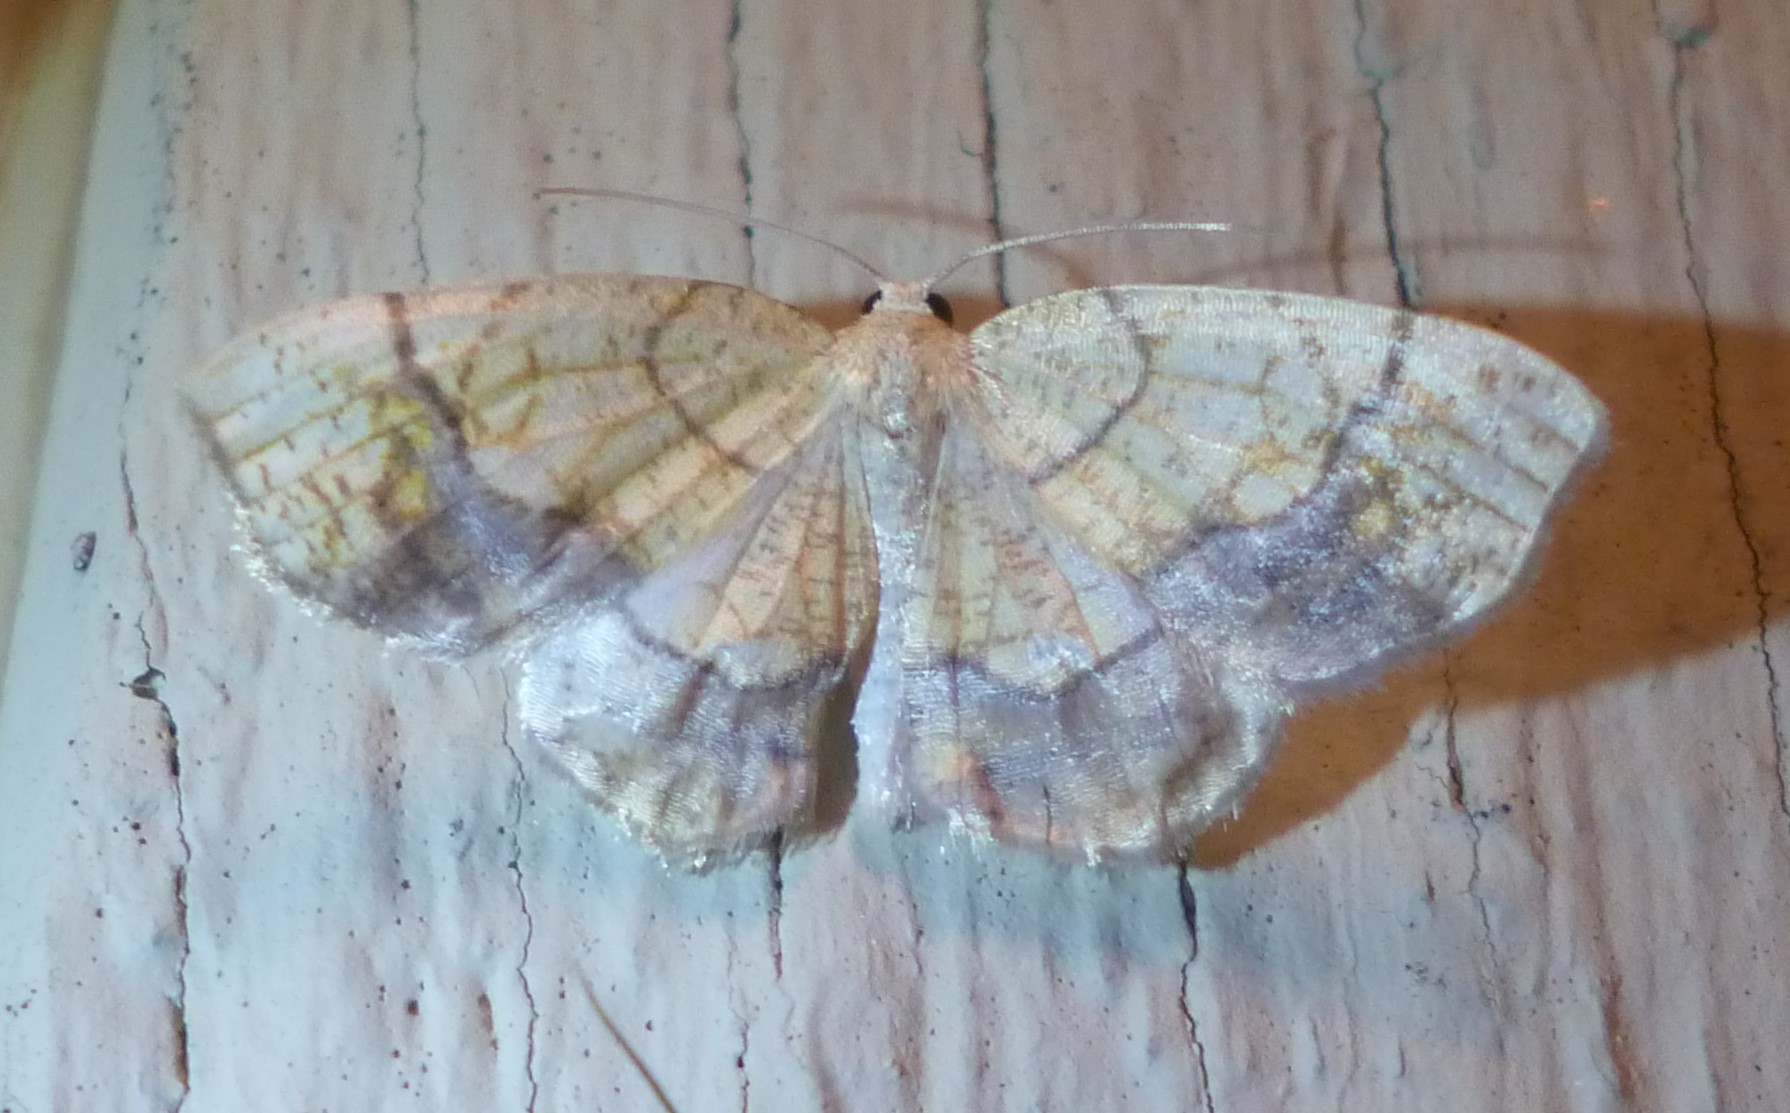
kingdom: Animalia
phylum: Arthropoda
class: Insecta
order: Lepidoptera
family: Geometridae
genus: Nematocampa
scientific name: Nematocampa resistaria
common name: Horned spanworm moth
